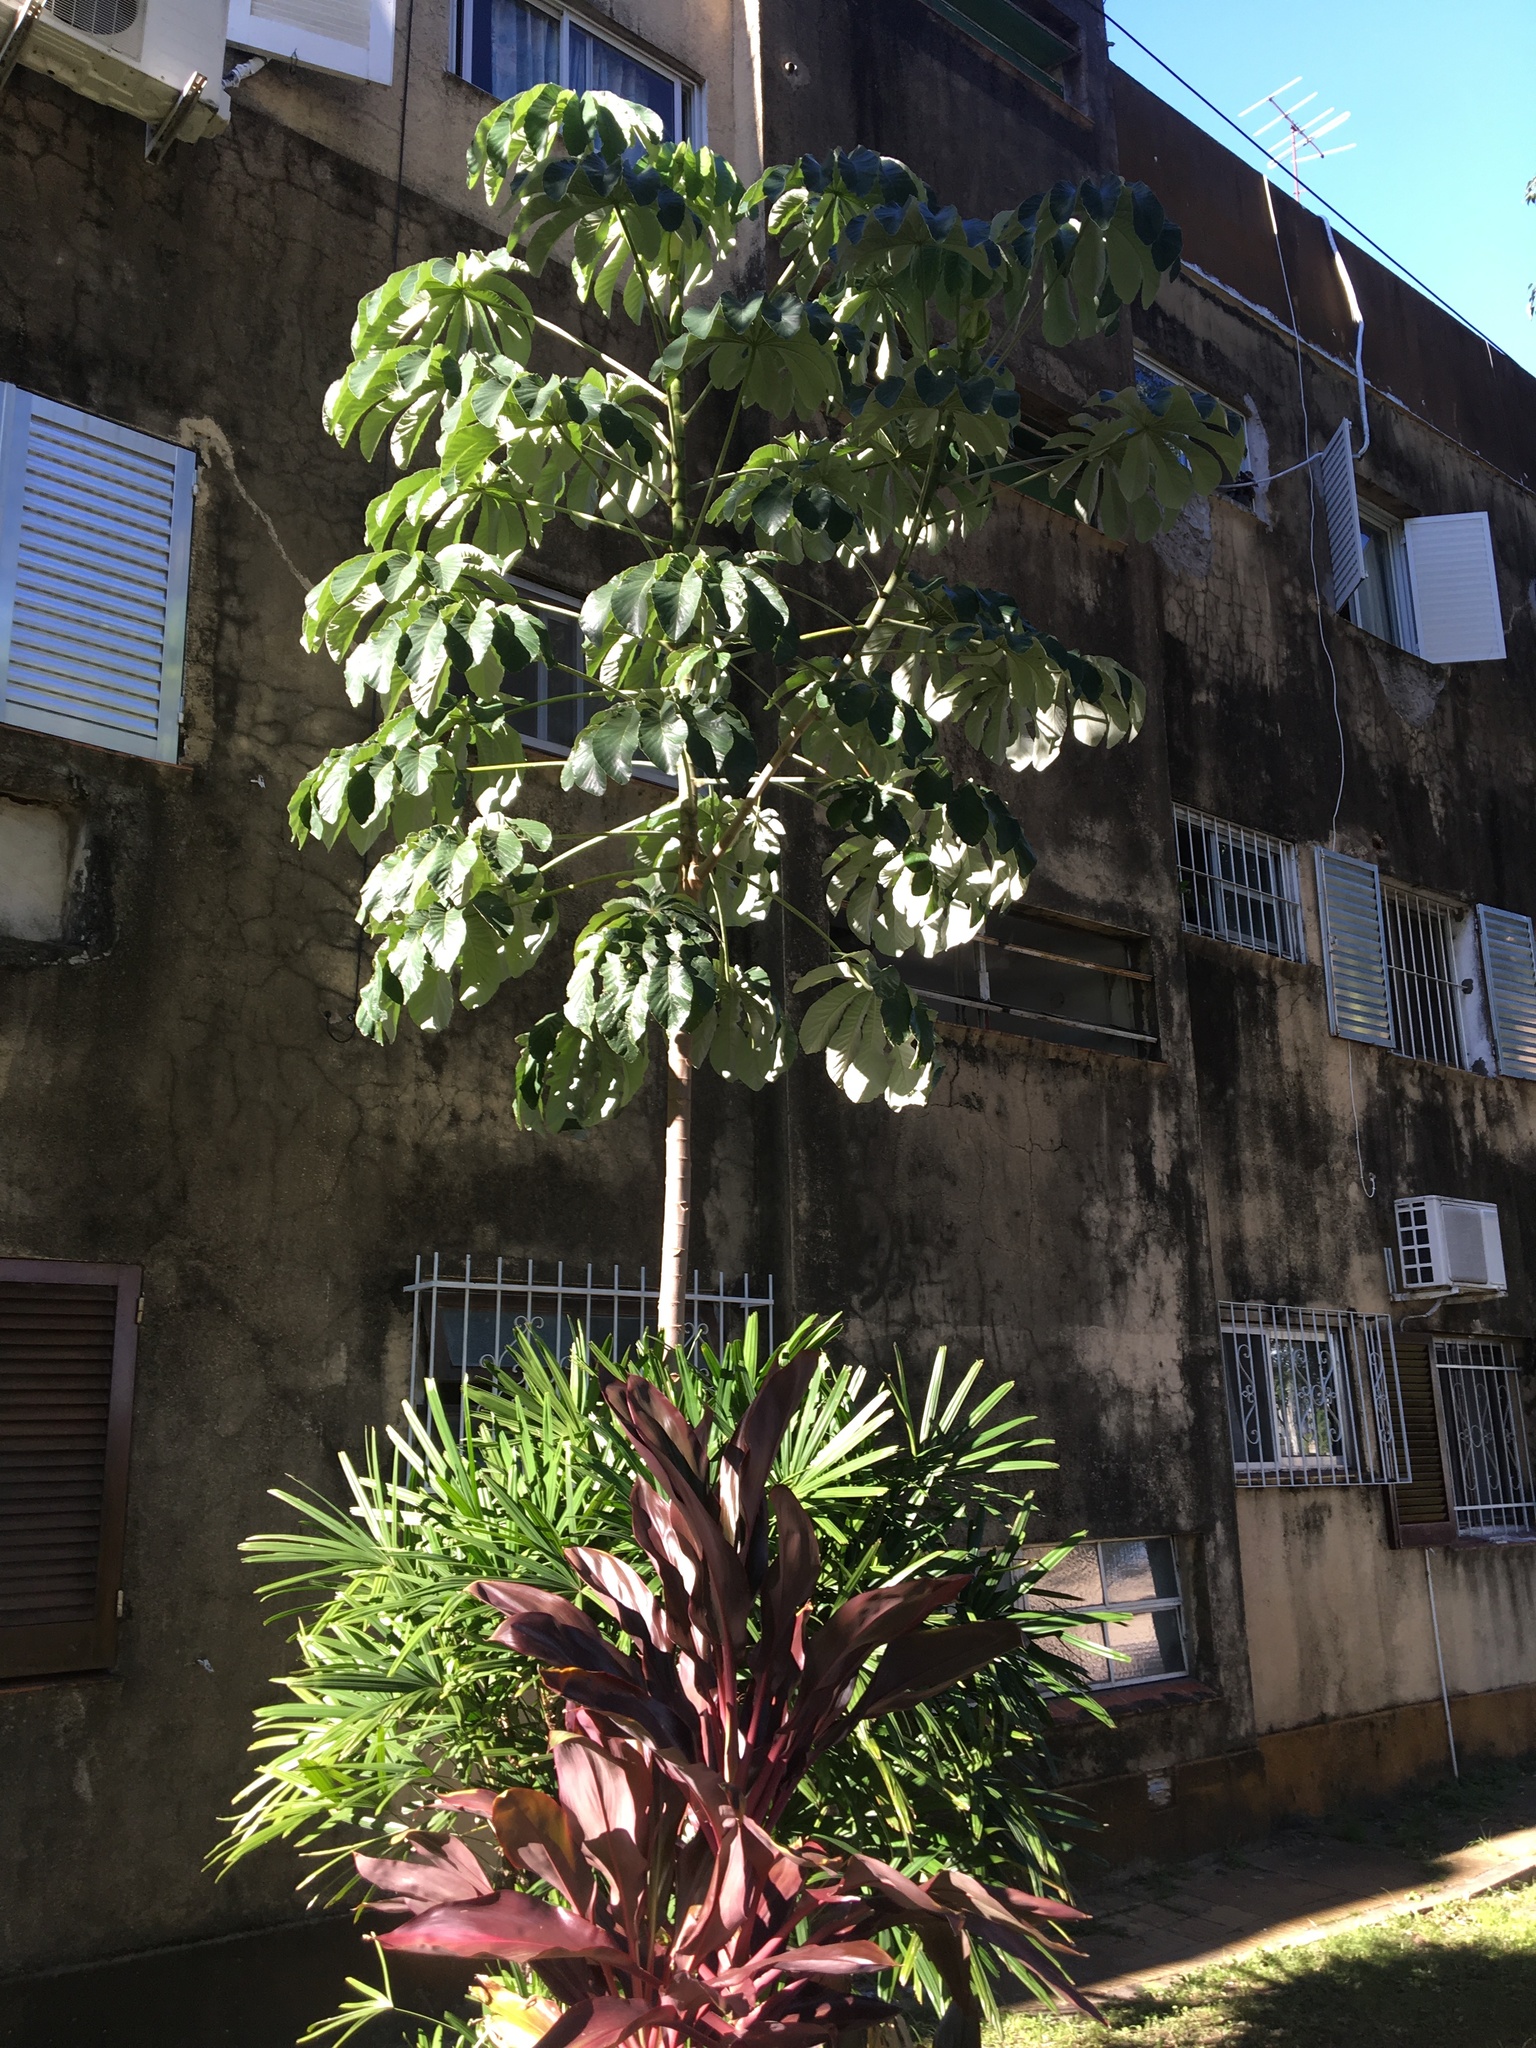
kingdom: Plantae
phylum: Tracheophyta
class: Magnoliopsida
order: Rosales
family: Urticaceae
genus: Cecropia
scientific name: Cecropia pachystachya
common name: Ambay pumpwood
